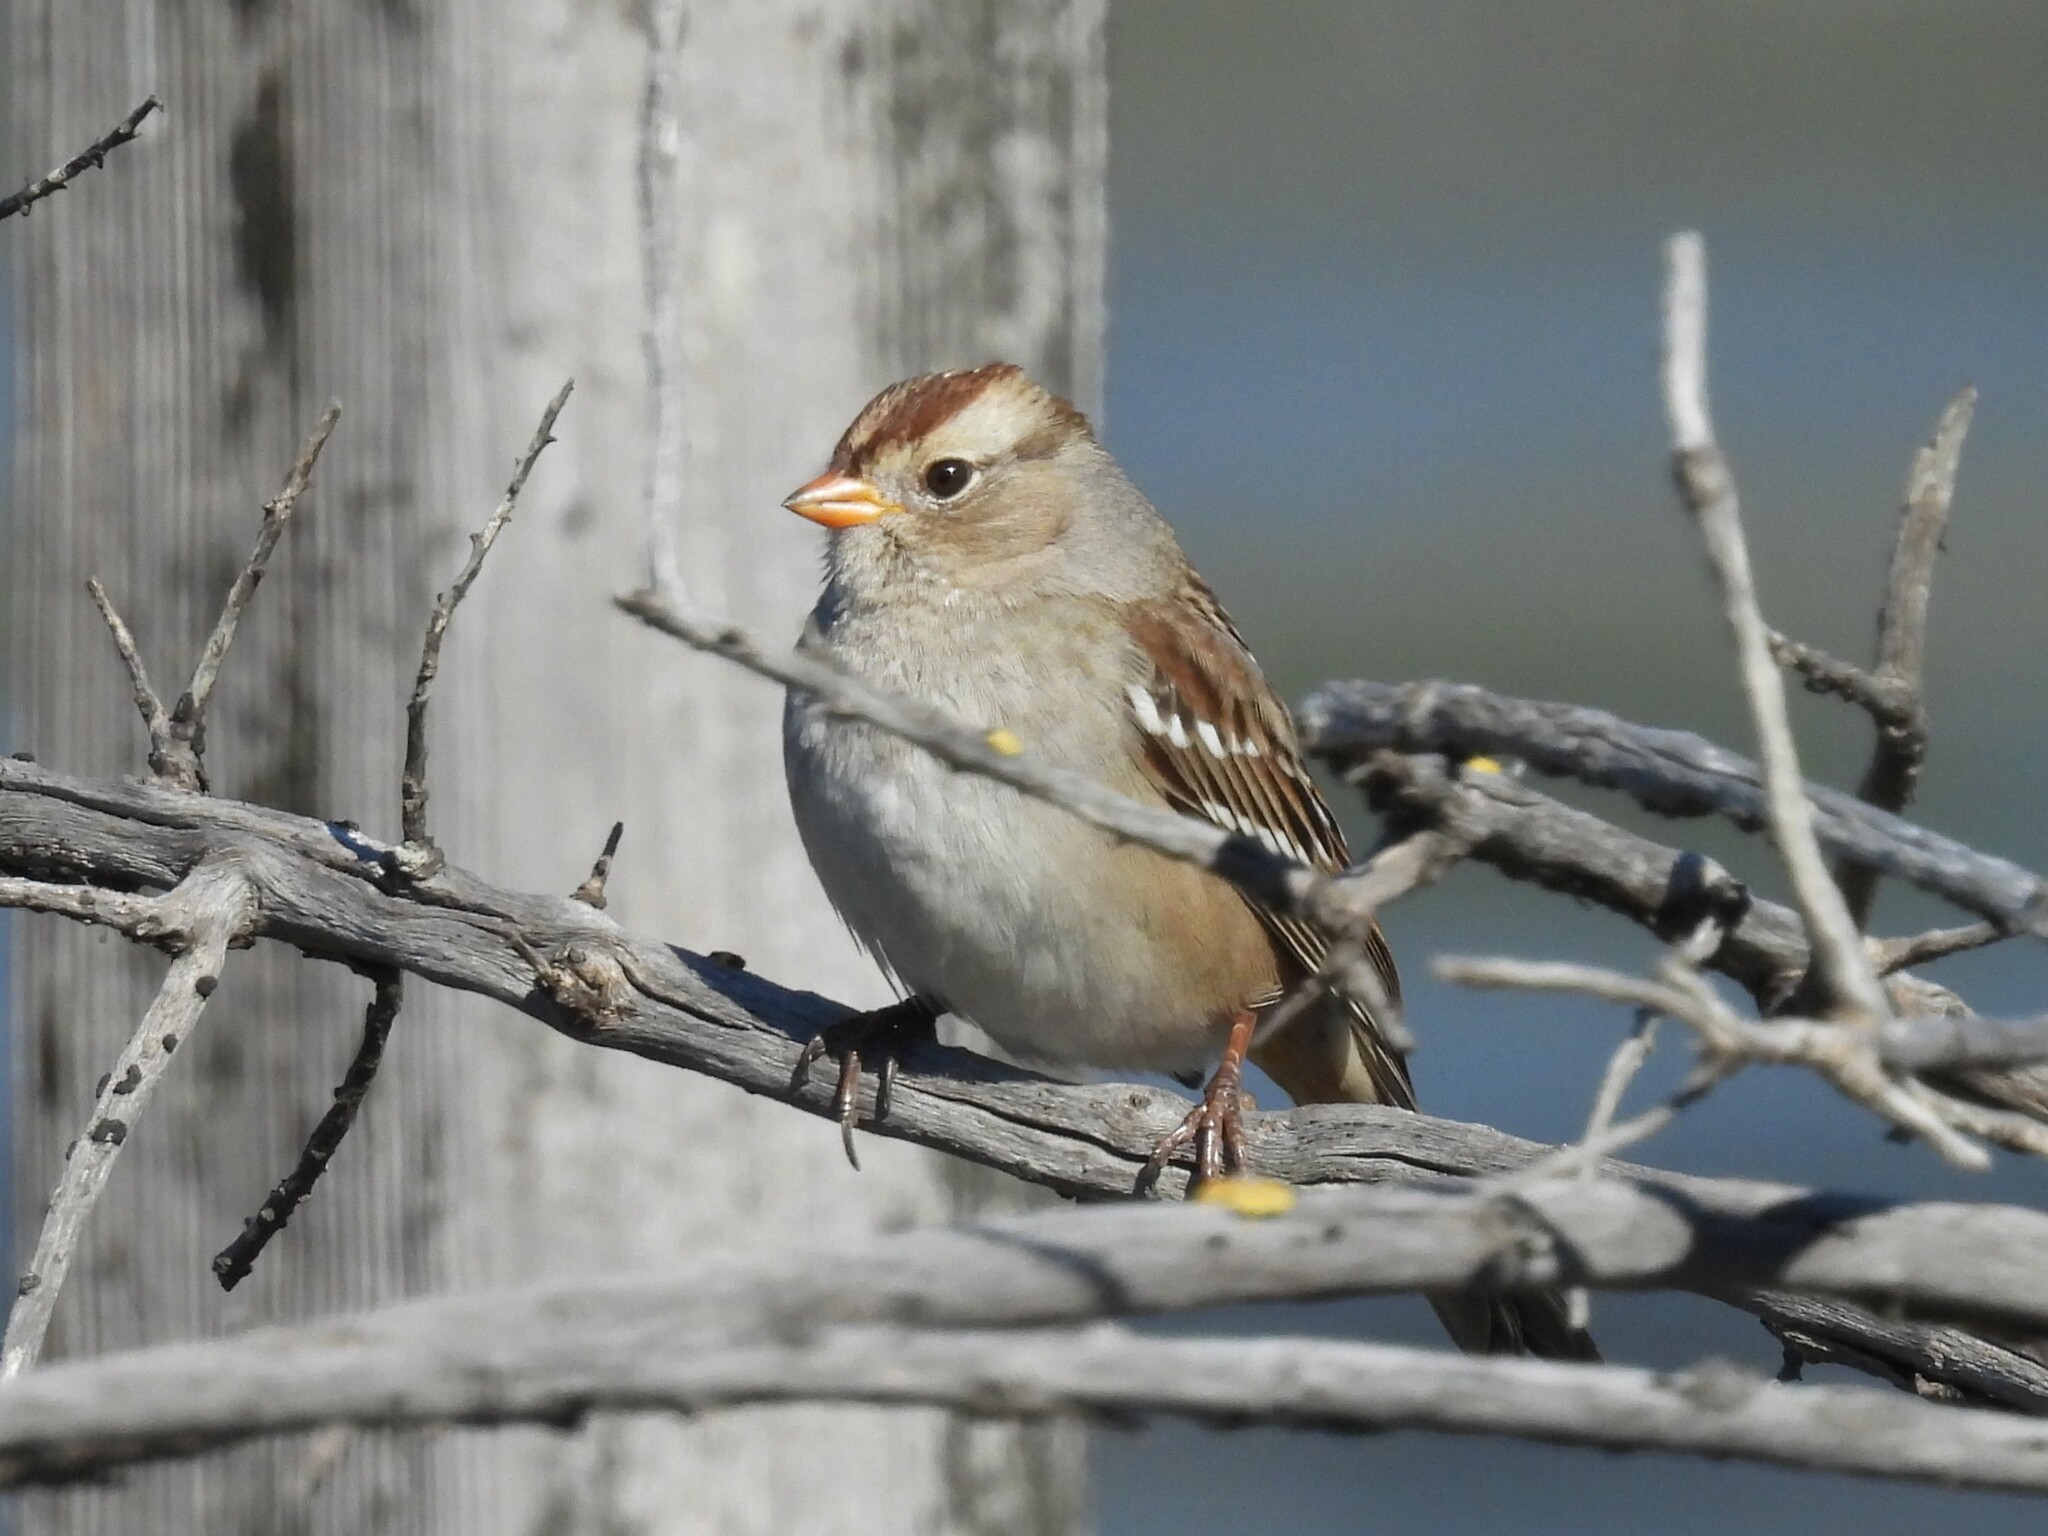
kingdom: Animalia
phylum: Chordata
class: Aves
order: Passeriformes
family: Passerellidae
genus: Zonotrichia
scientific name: Zonotrichia leucophrys
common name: White-crowned sparrow
